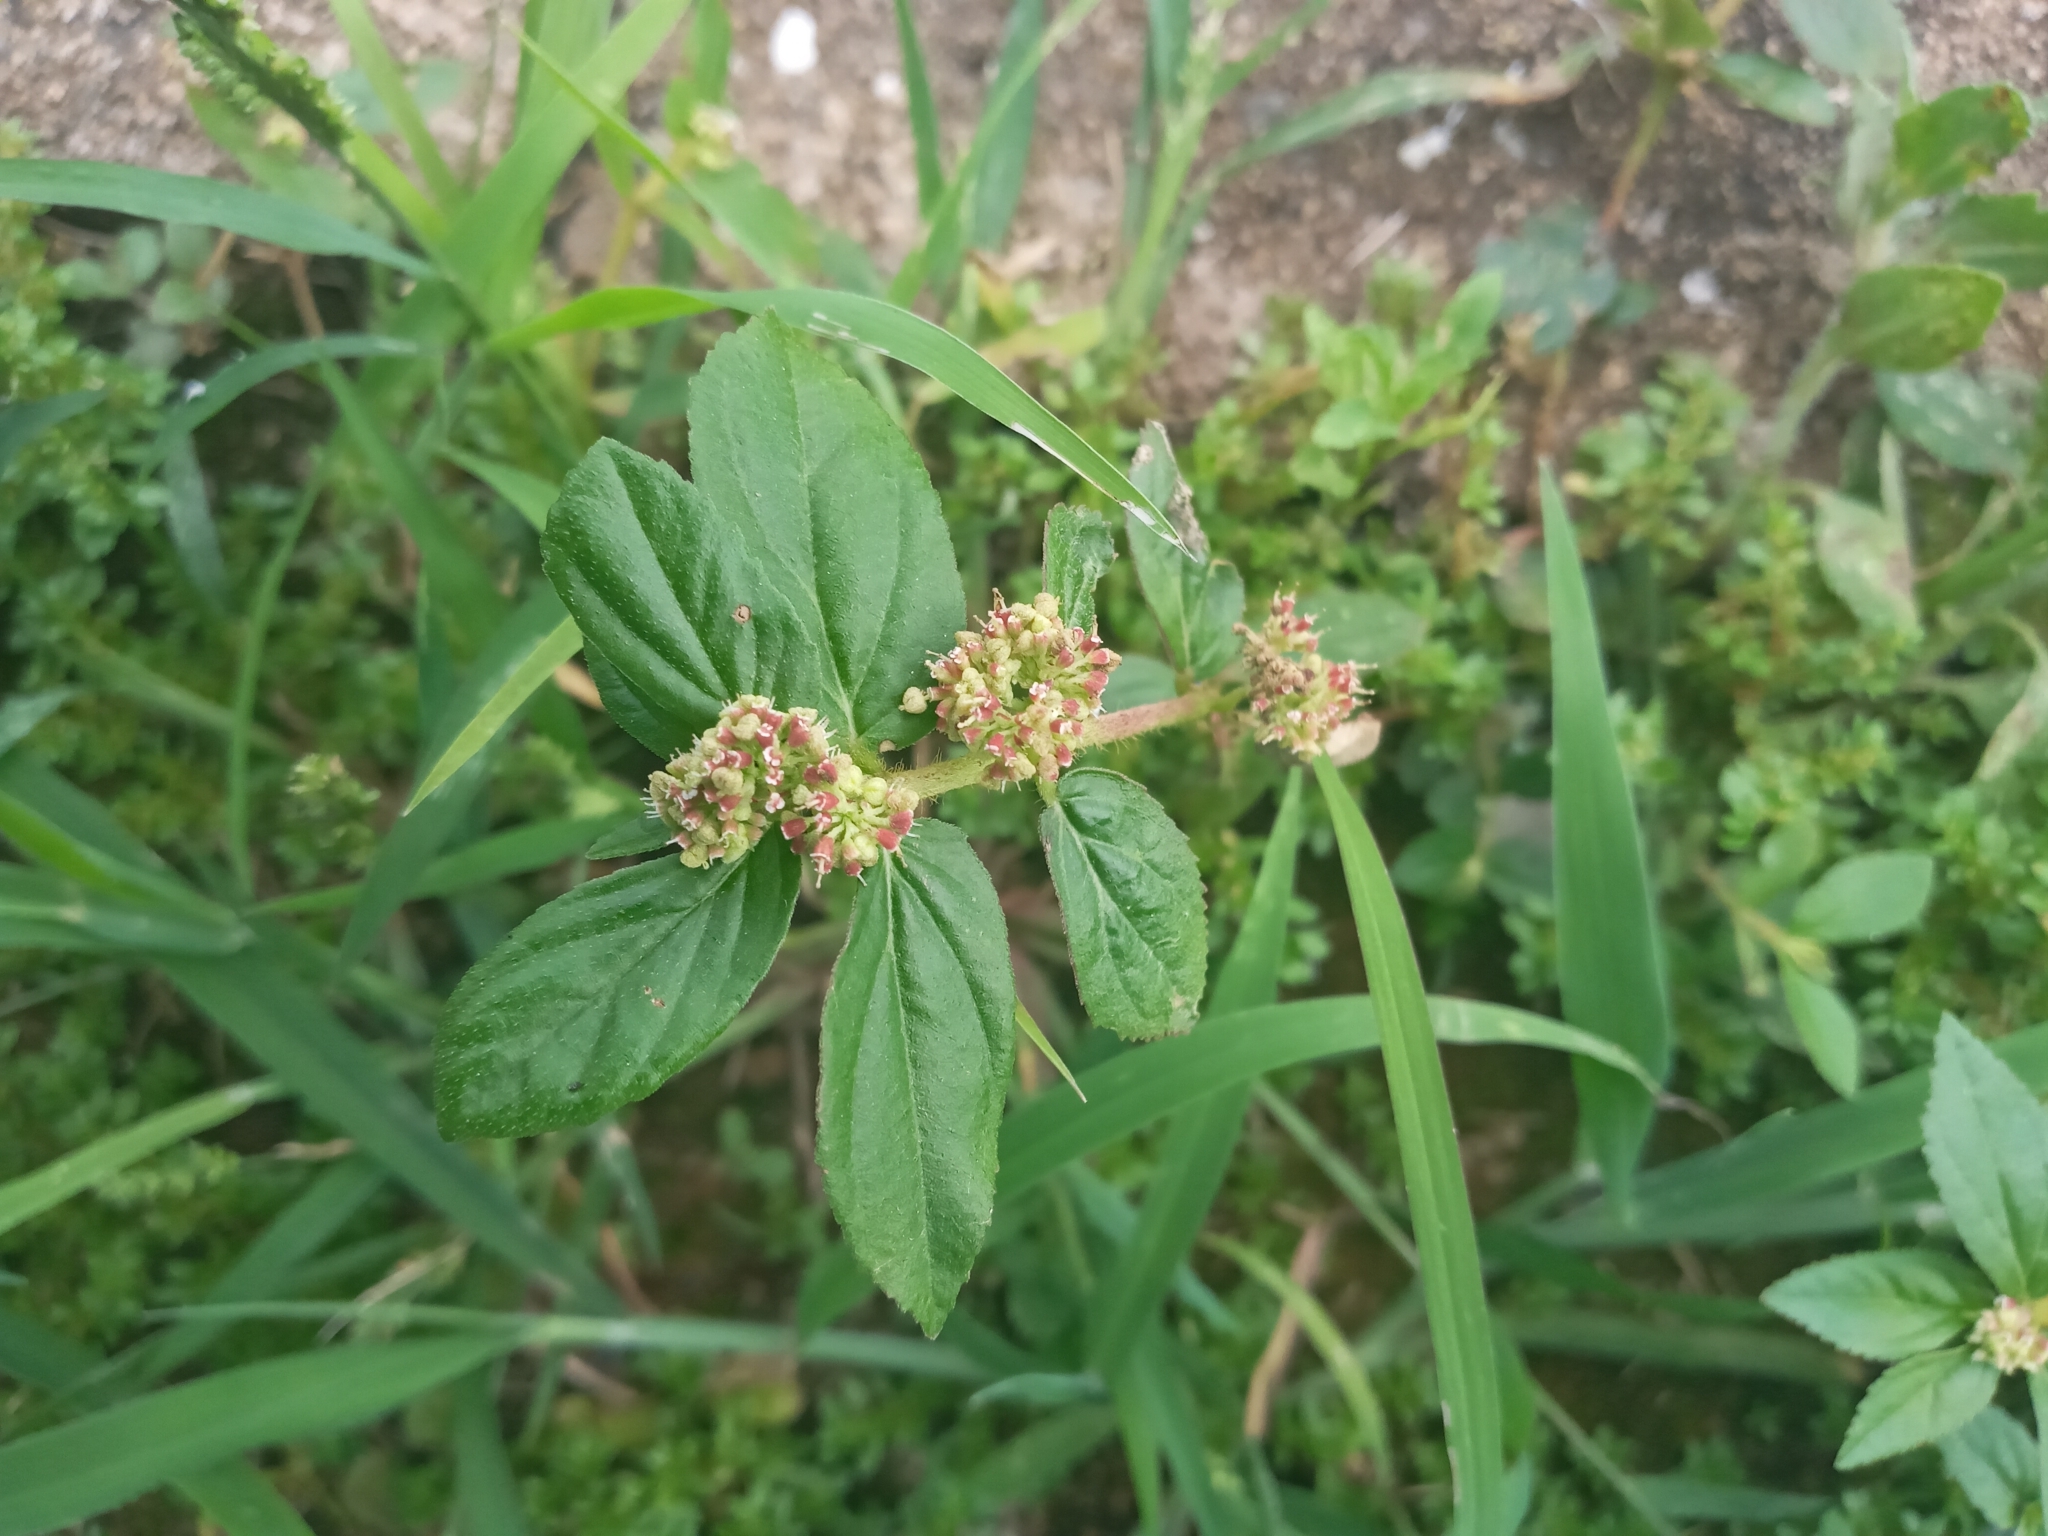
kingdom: Plantae
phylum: Tracheophyta
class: Magnoliopsida
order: Malpighiales
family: Euphorbiaceae
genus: Euphorbia
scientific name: Euphorbia hirta
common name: Pillpod sandmat
